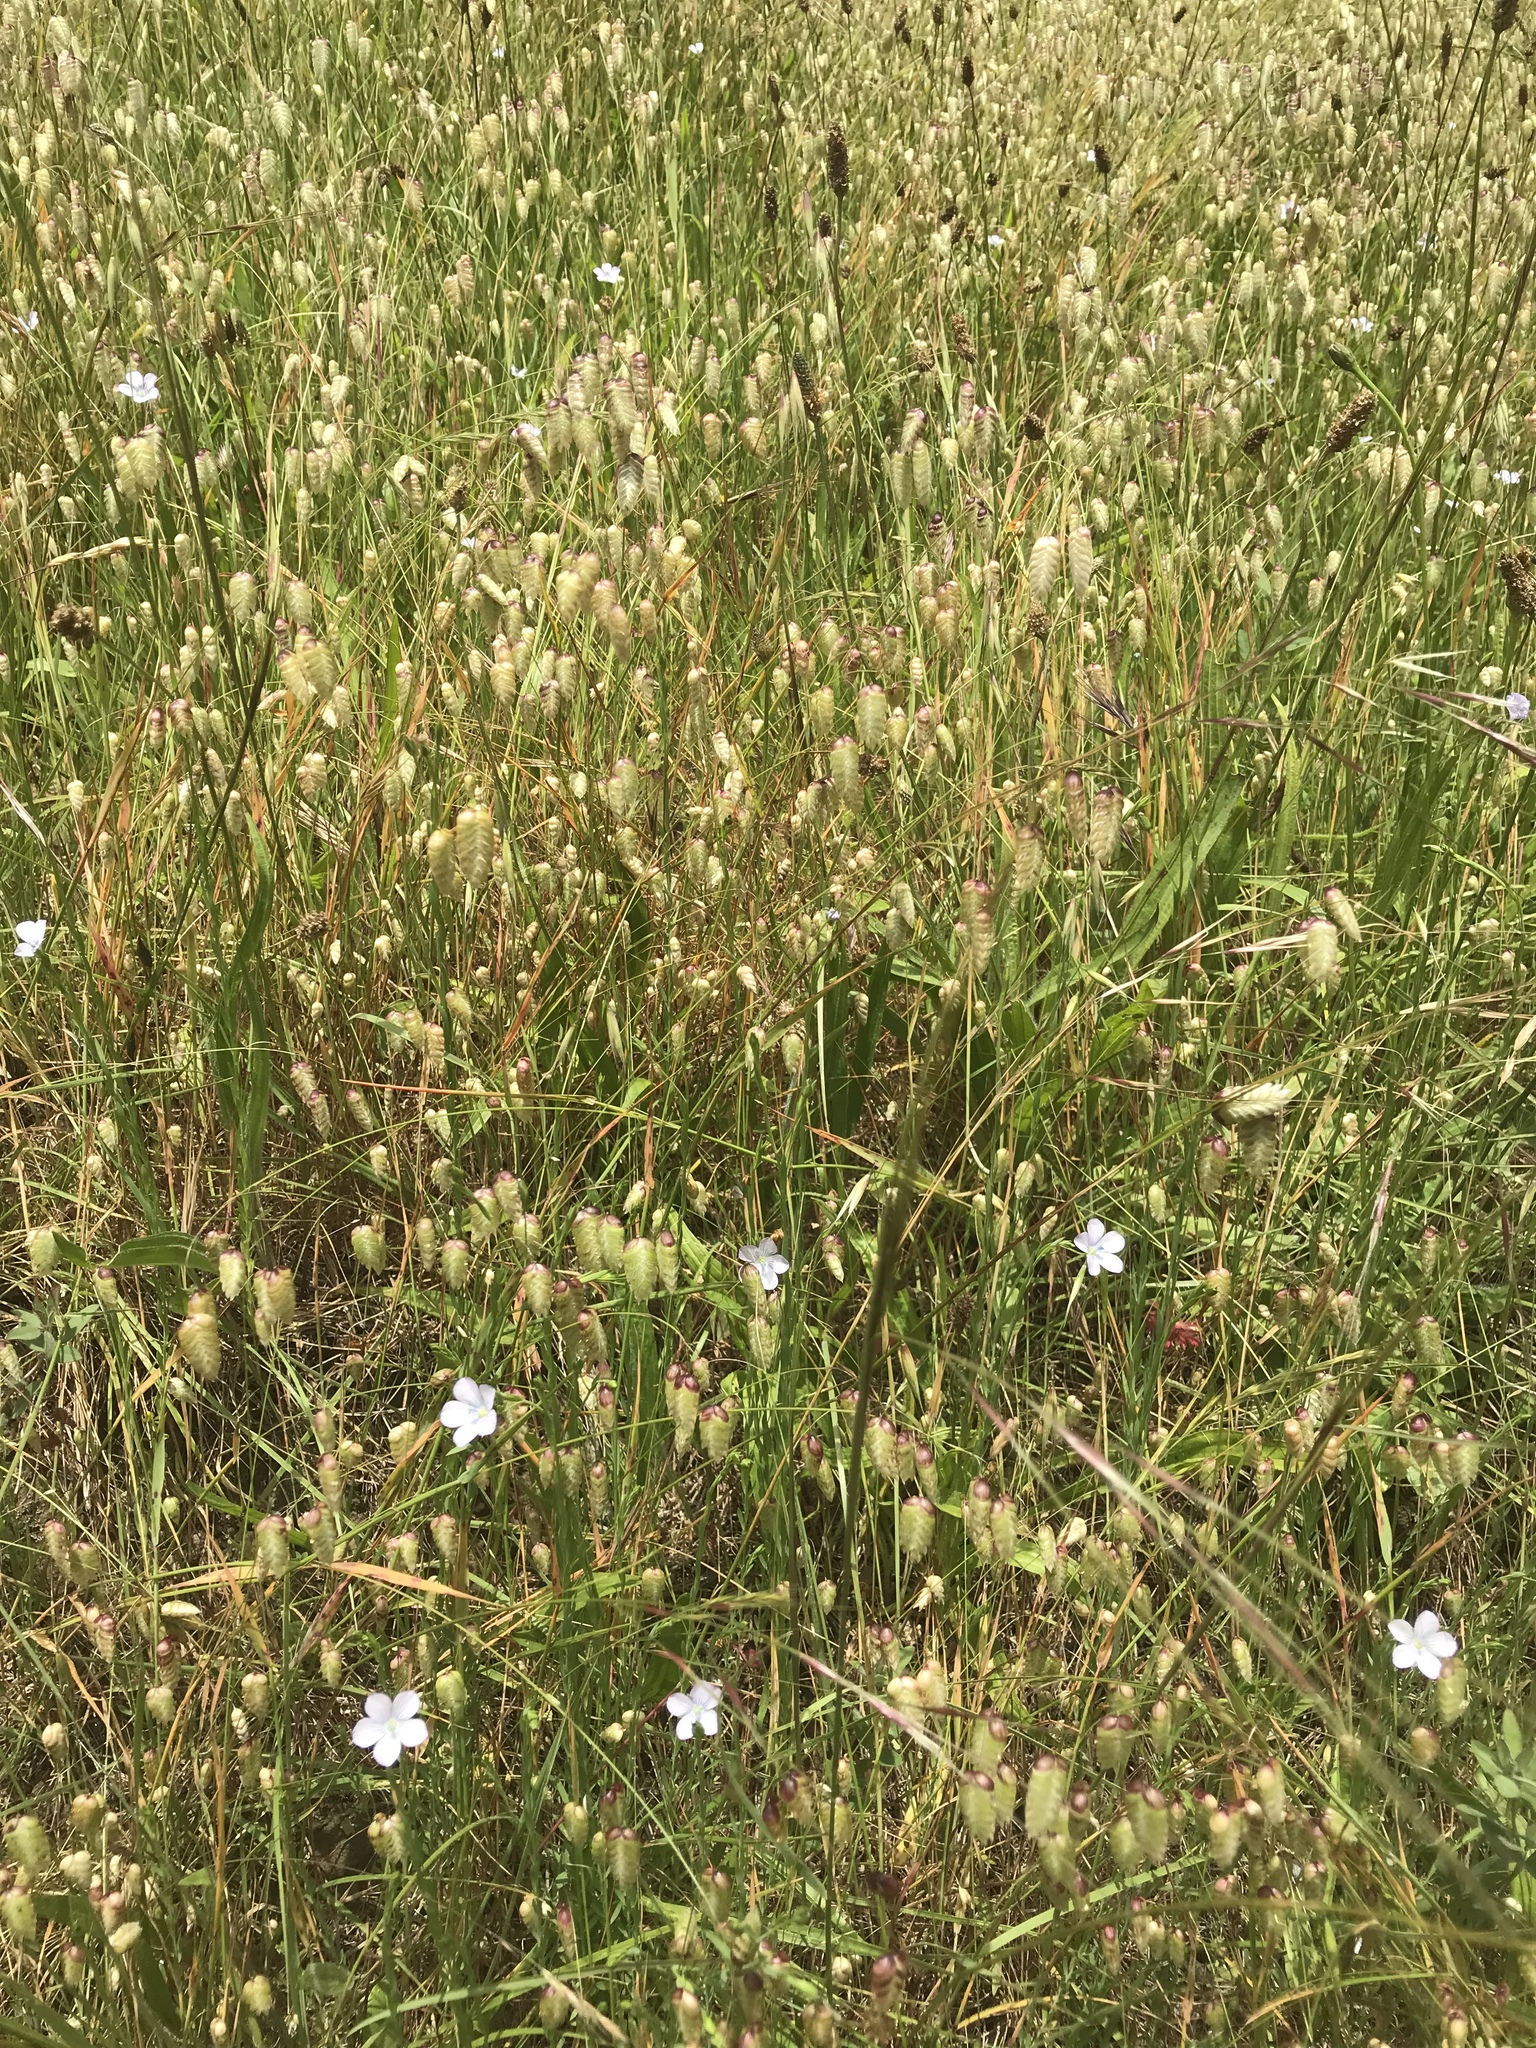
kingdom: Plantae
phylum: Tracheophyta
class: Magnoliopsida
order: Malpighiales
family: Linaceae
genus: Linum
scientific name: Linum bienne
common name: Pale flax
